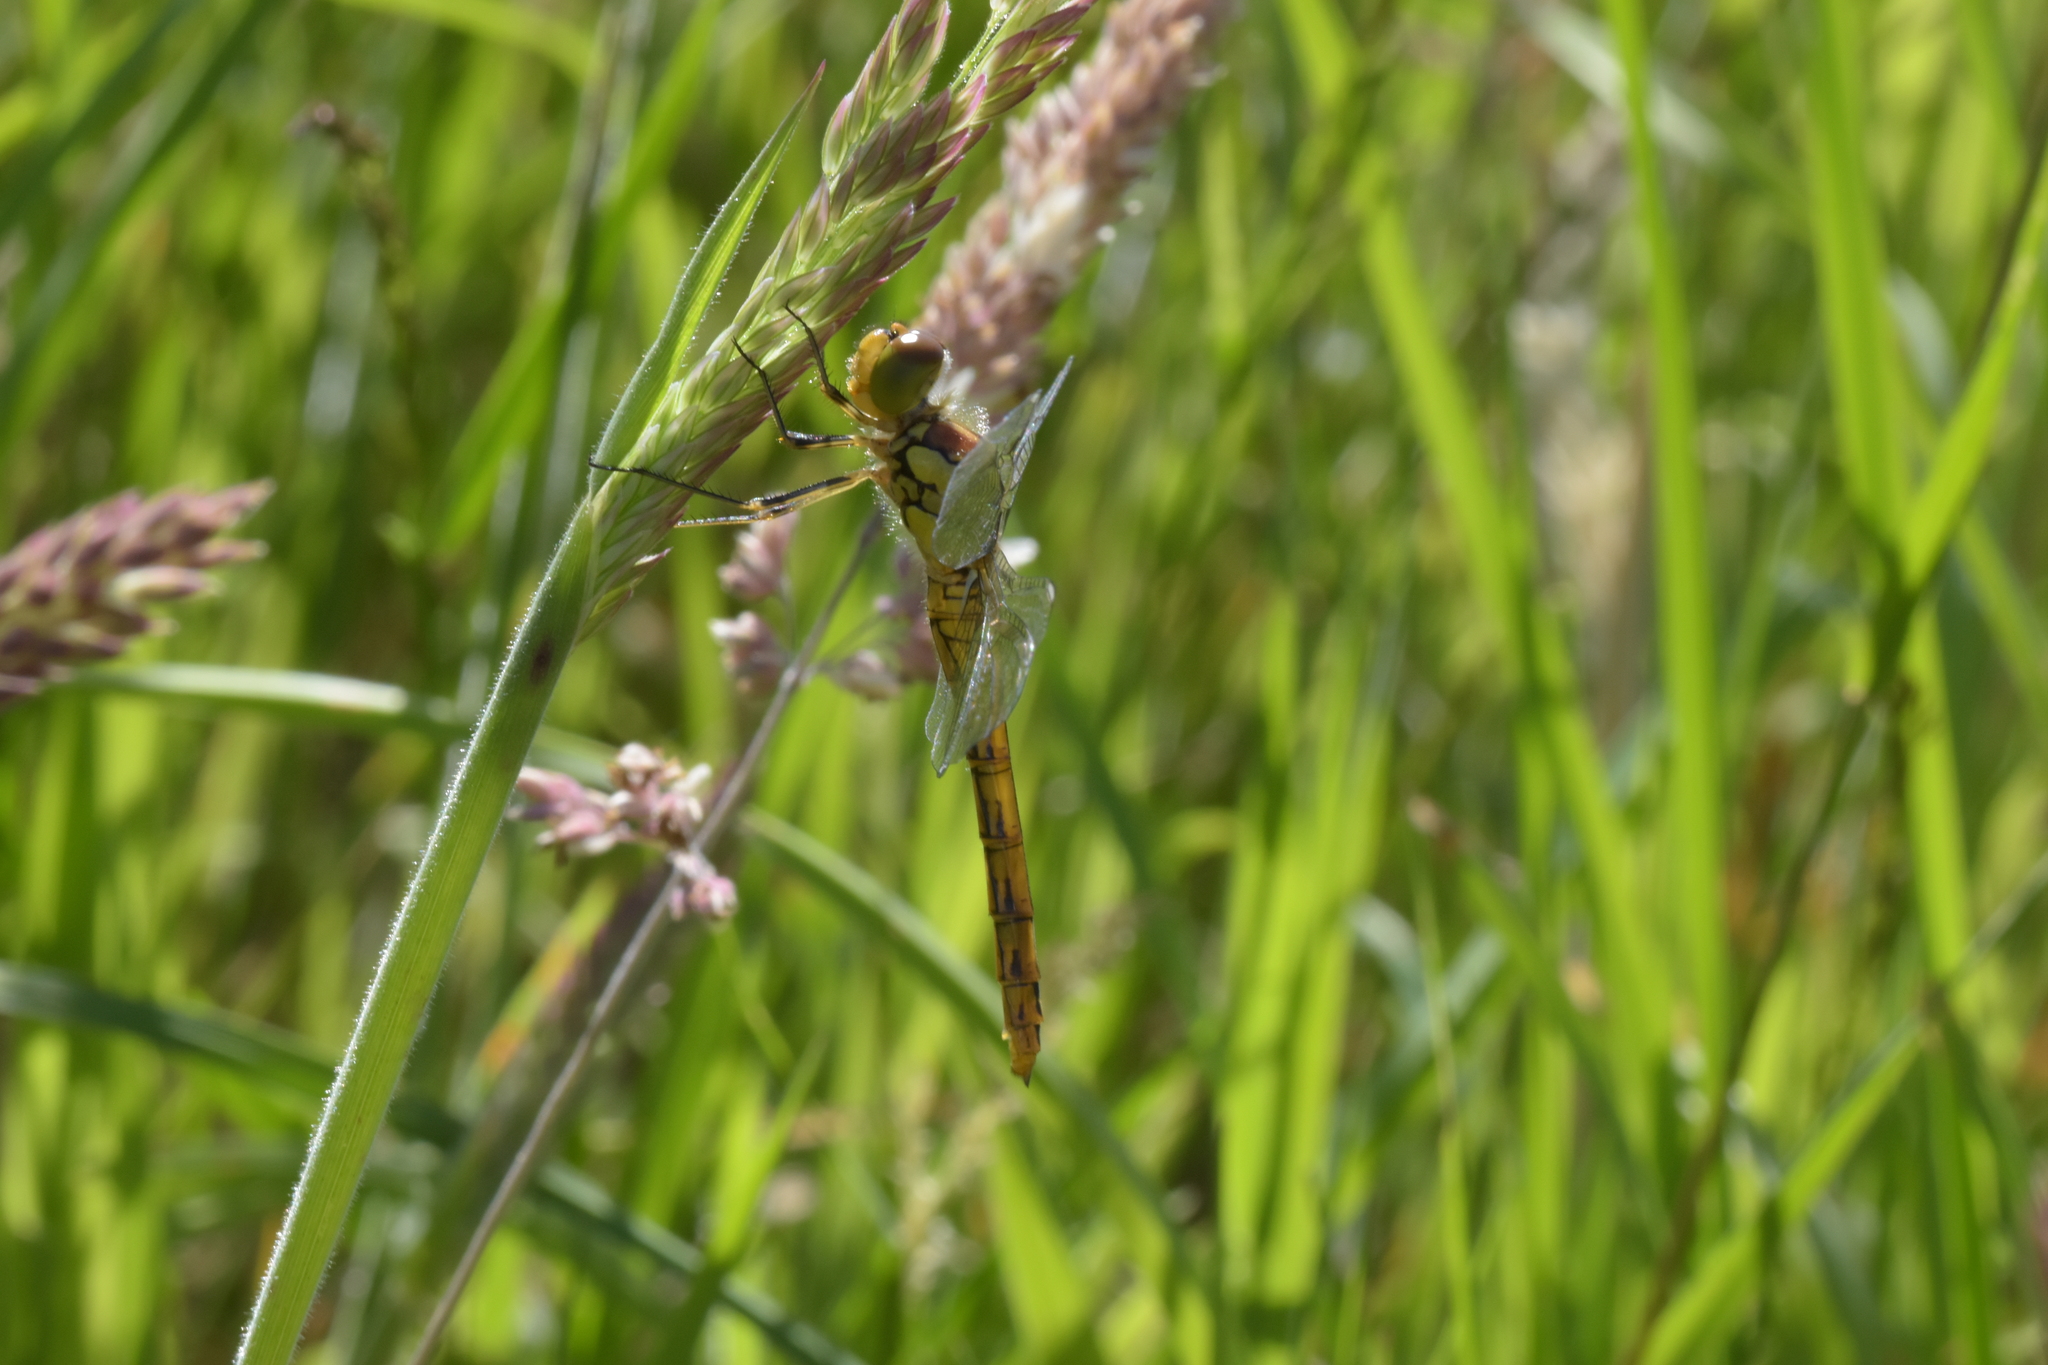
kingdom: Animalia
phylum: Arthropoda
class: Insecta
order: Odonata
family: Libellulidae
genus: Sympetrum
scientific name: Sympetrum striolatum
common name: Common darter
